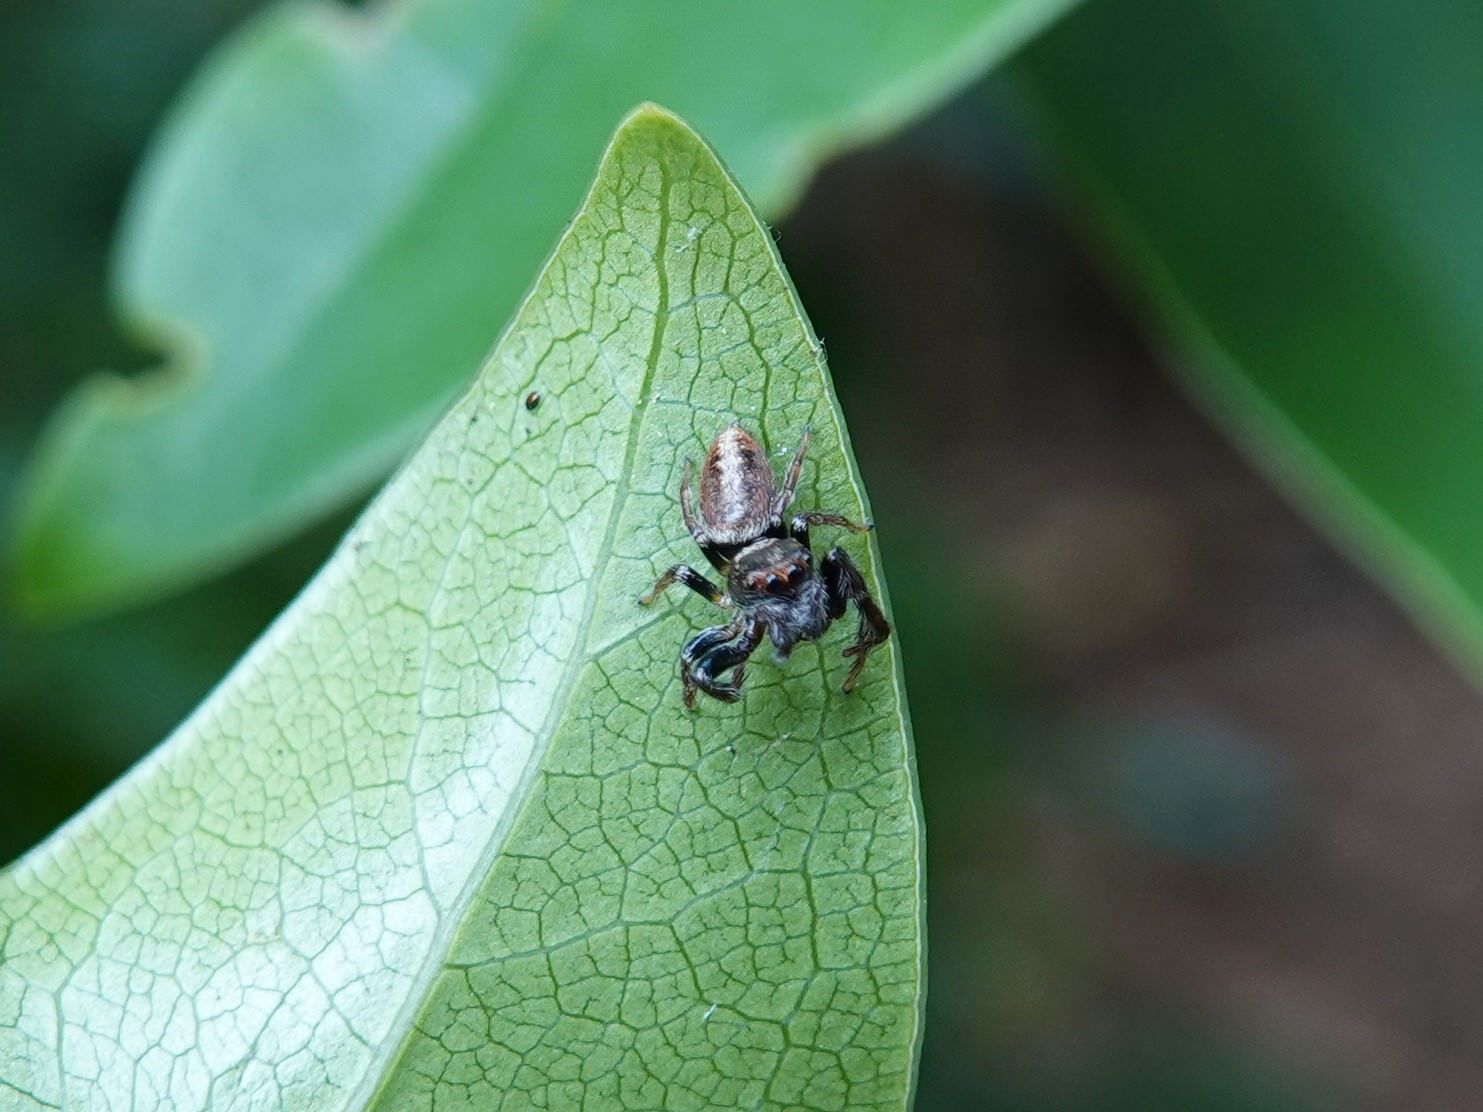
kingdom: Animalia
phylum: Arthropoda
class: Arachnida
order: Araneae
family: Salticidae
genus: Opisthoncus
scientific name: Opisthoncus polyphemus
